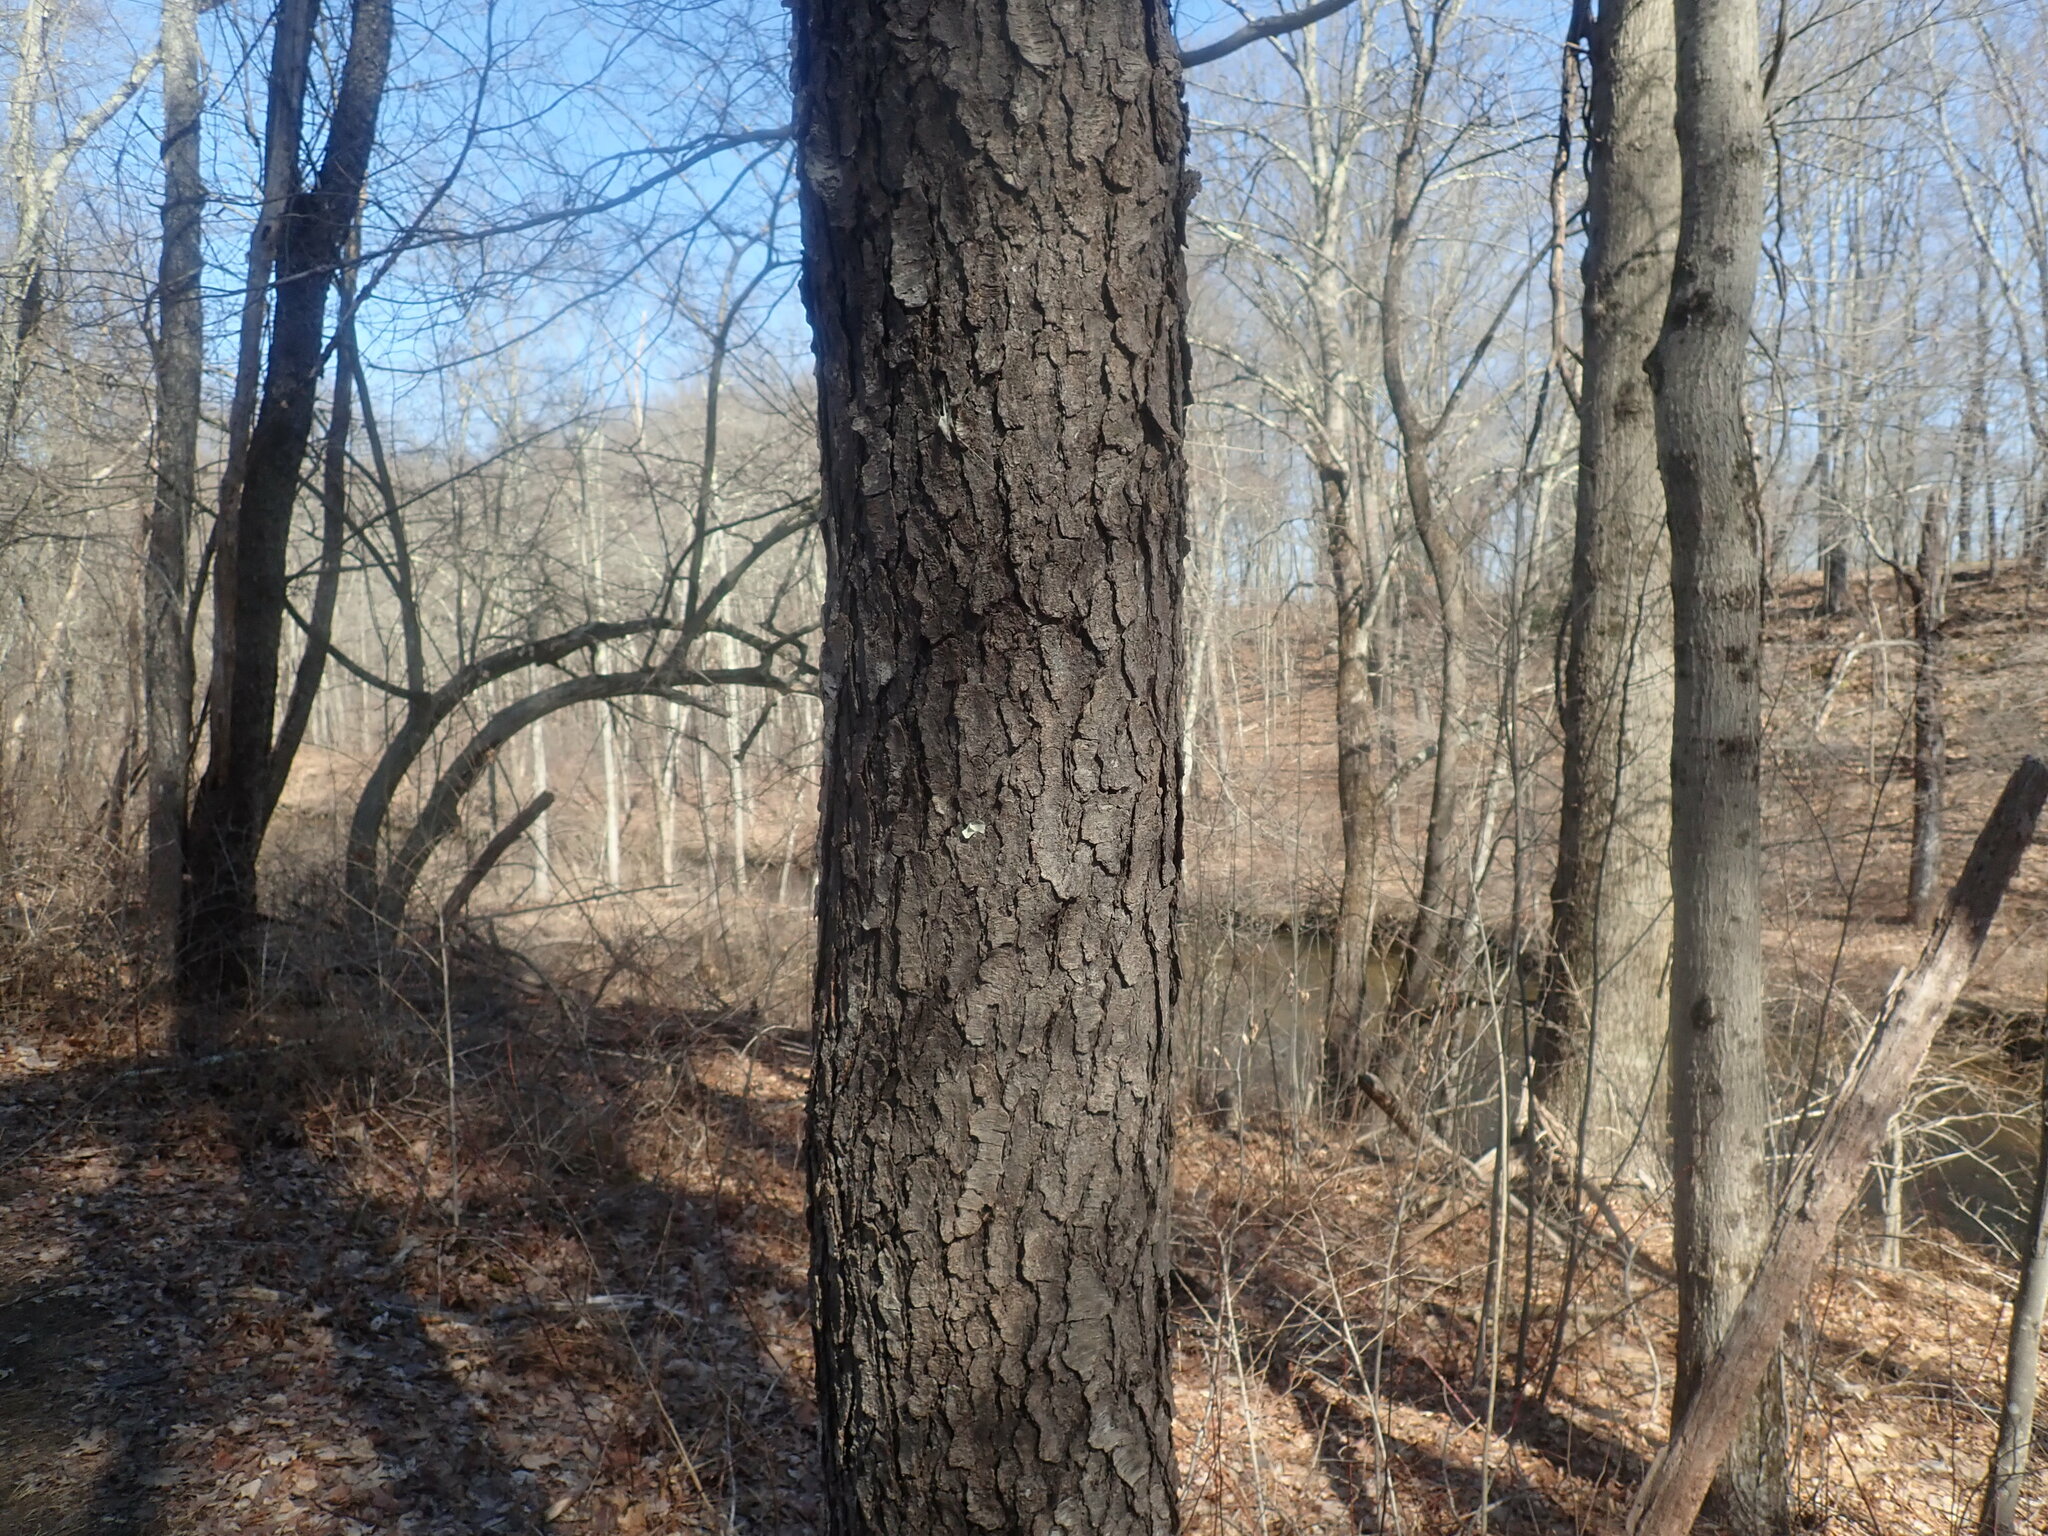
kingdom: Plantae
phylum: Tracheophyta
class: Magnoliopsida
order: Rosales
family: Rosaceae
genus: Prunus
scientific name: Prunus serotina
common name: Black cherry
